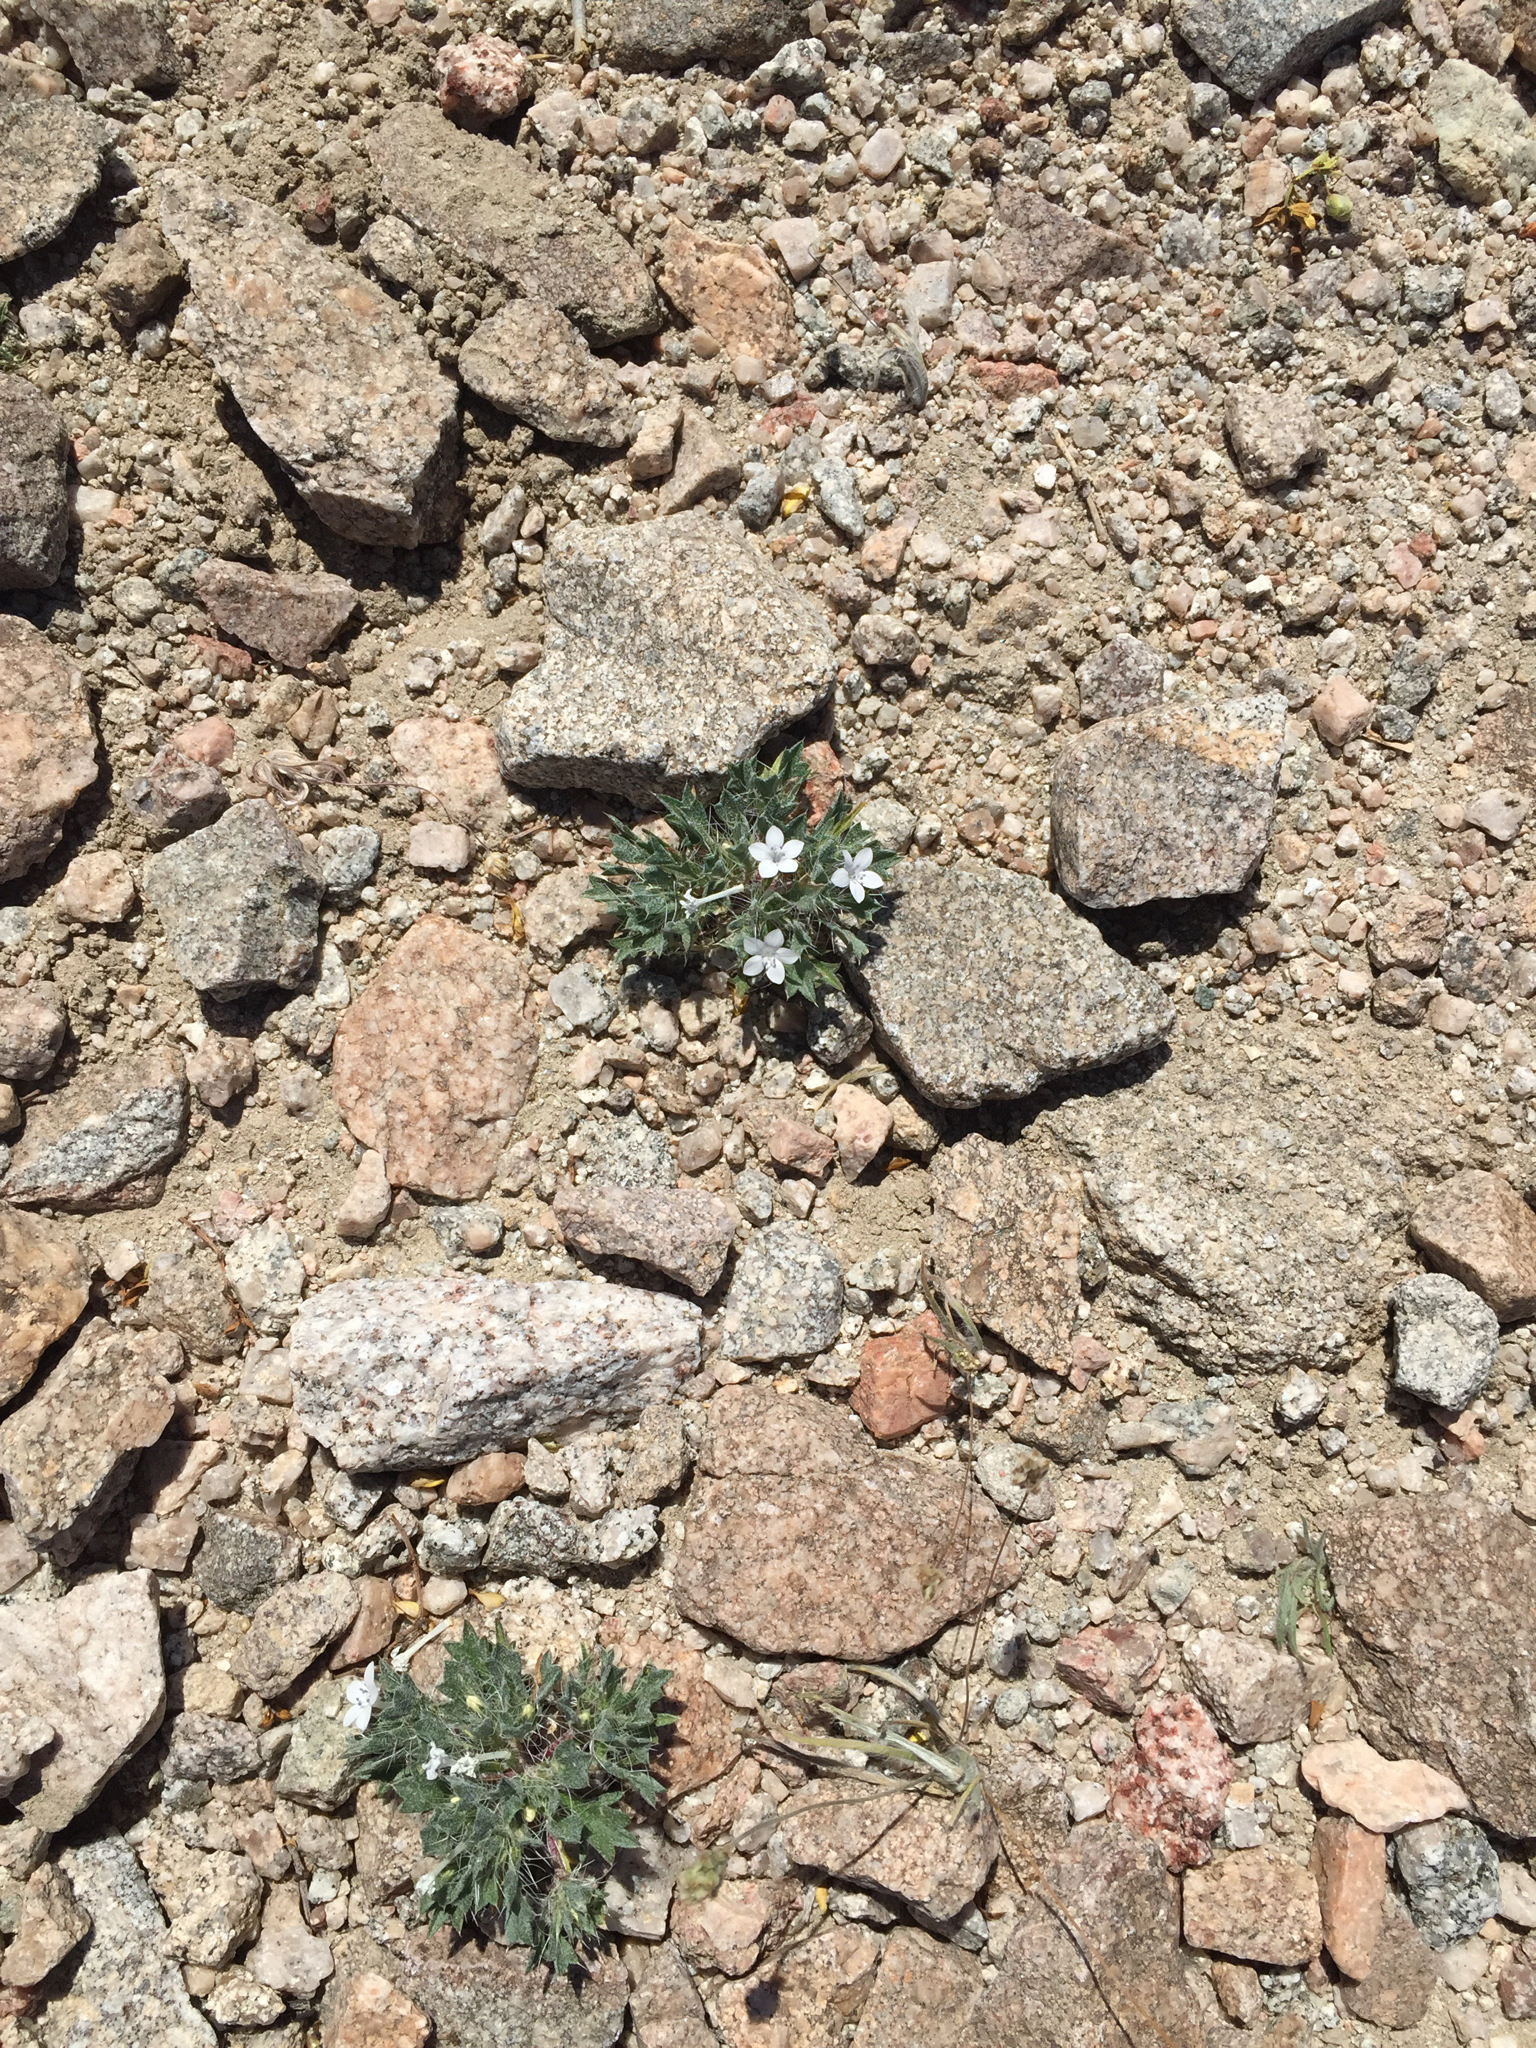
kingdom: Plantae
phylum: Tracheophyta
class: Magnoliopsida
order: Ericales
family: Polemoniaceae
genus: Langloisia
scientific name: Langloisia setosissima
